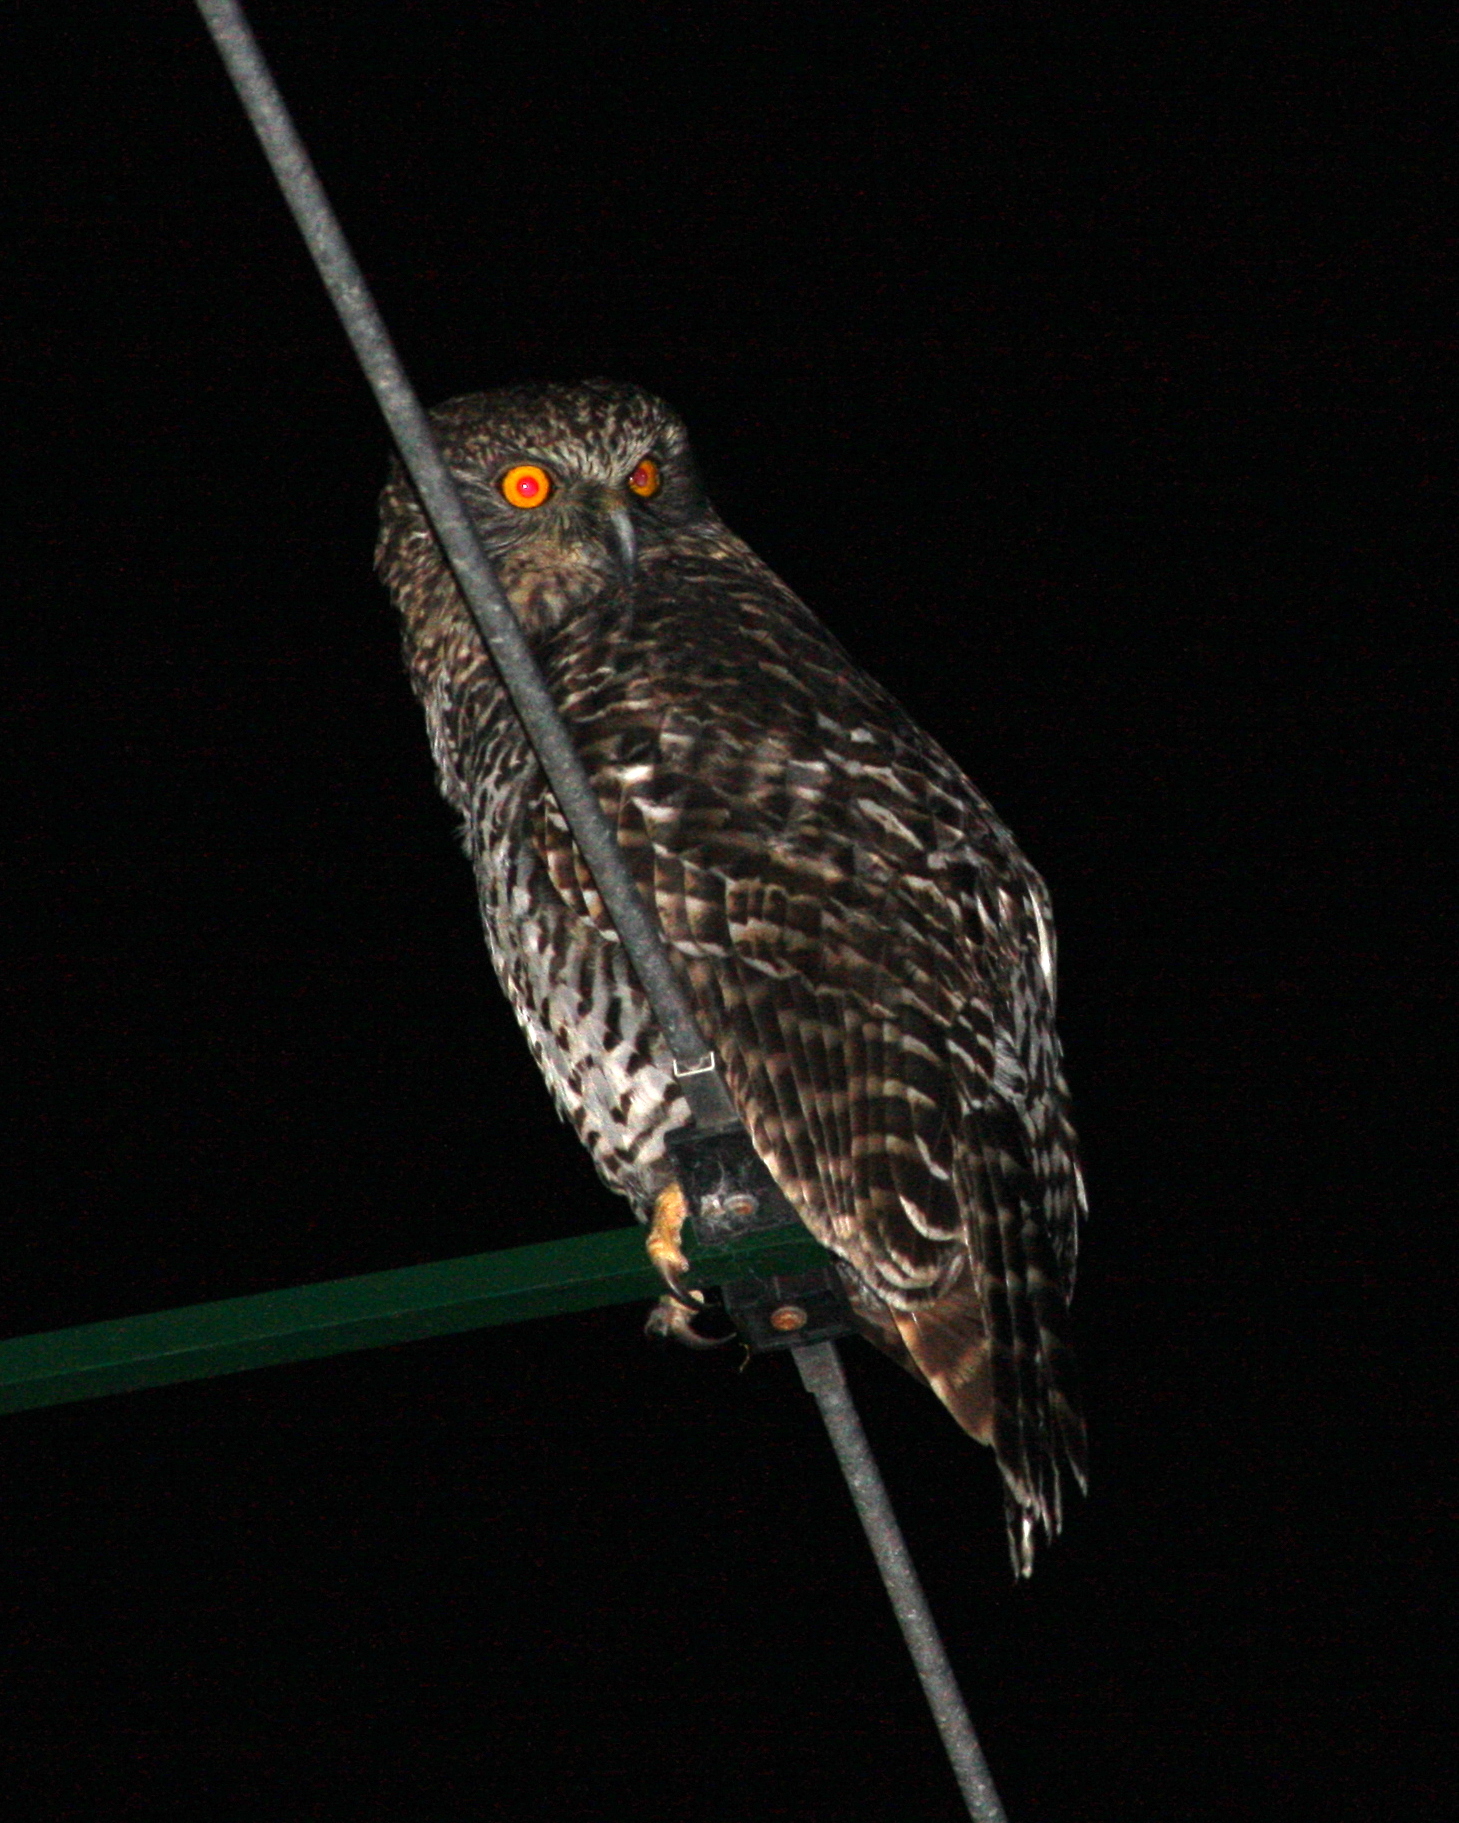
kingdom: Animalia
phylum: Chordata
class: Aves
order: Strigiformes
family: Strigidae
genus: Ninox
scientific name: Ninox strenua
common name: Powerful owl
